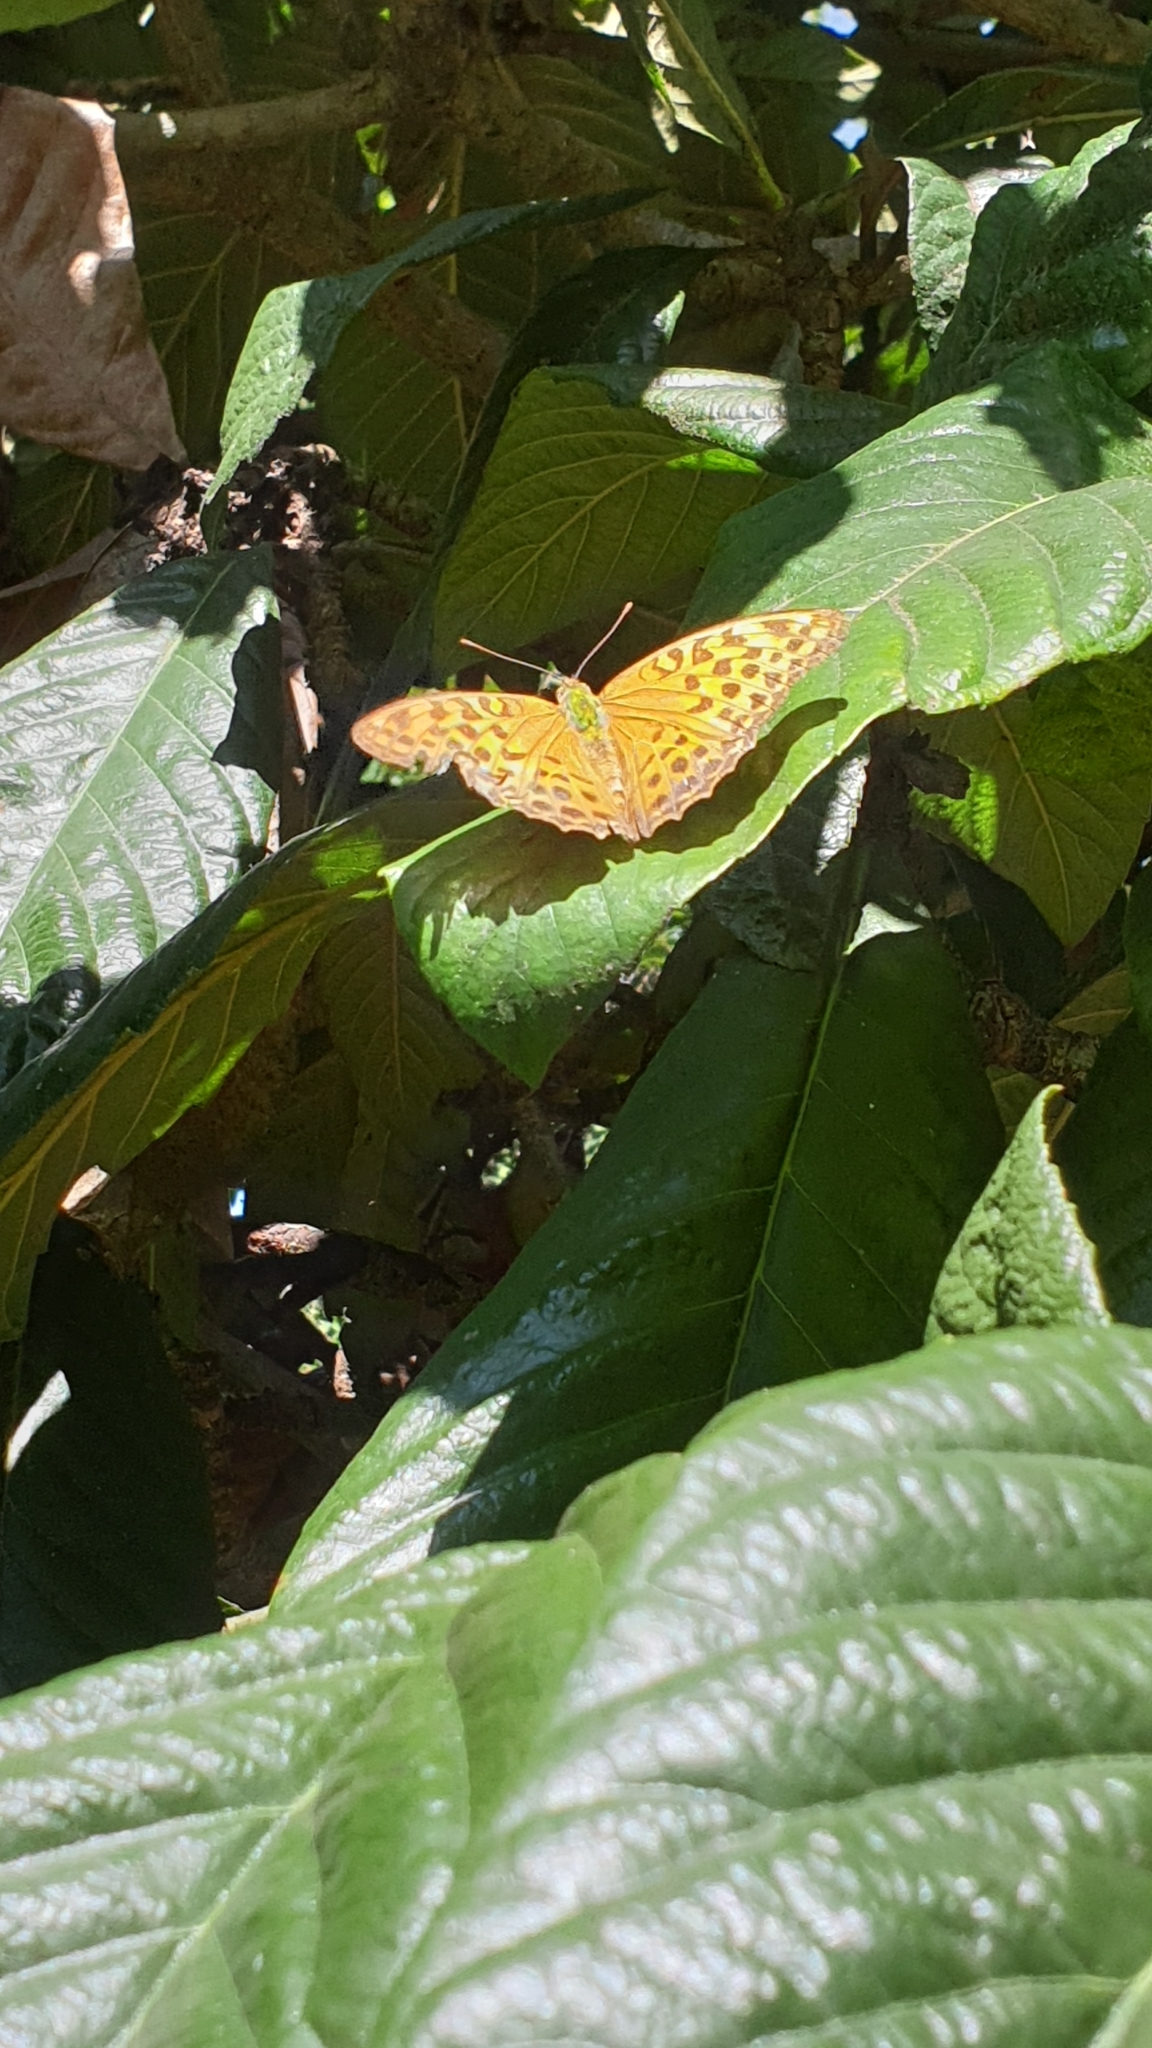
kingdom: Animalia
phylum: Arthropoda
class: Insecta
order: Lepidoptera
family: Nymphalidae
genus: Argynnis
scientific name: Argynnis paphia
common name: Silver-washed fritillary
